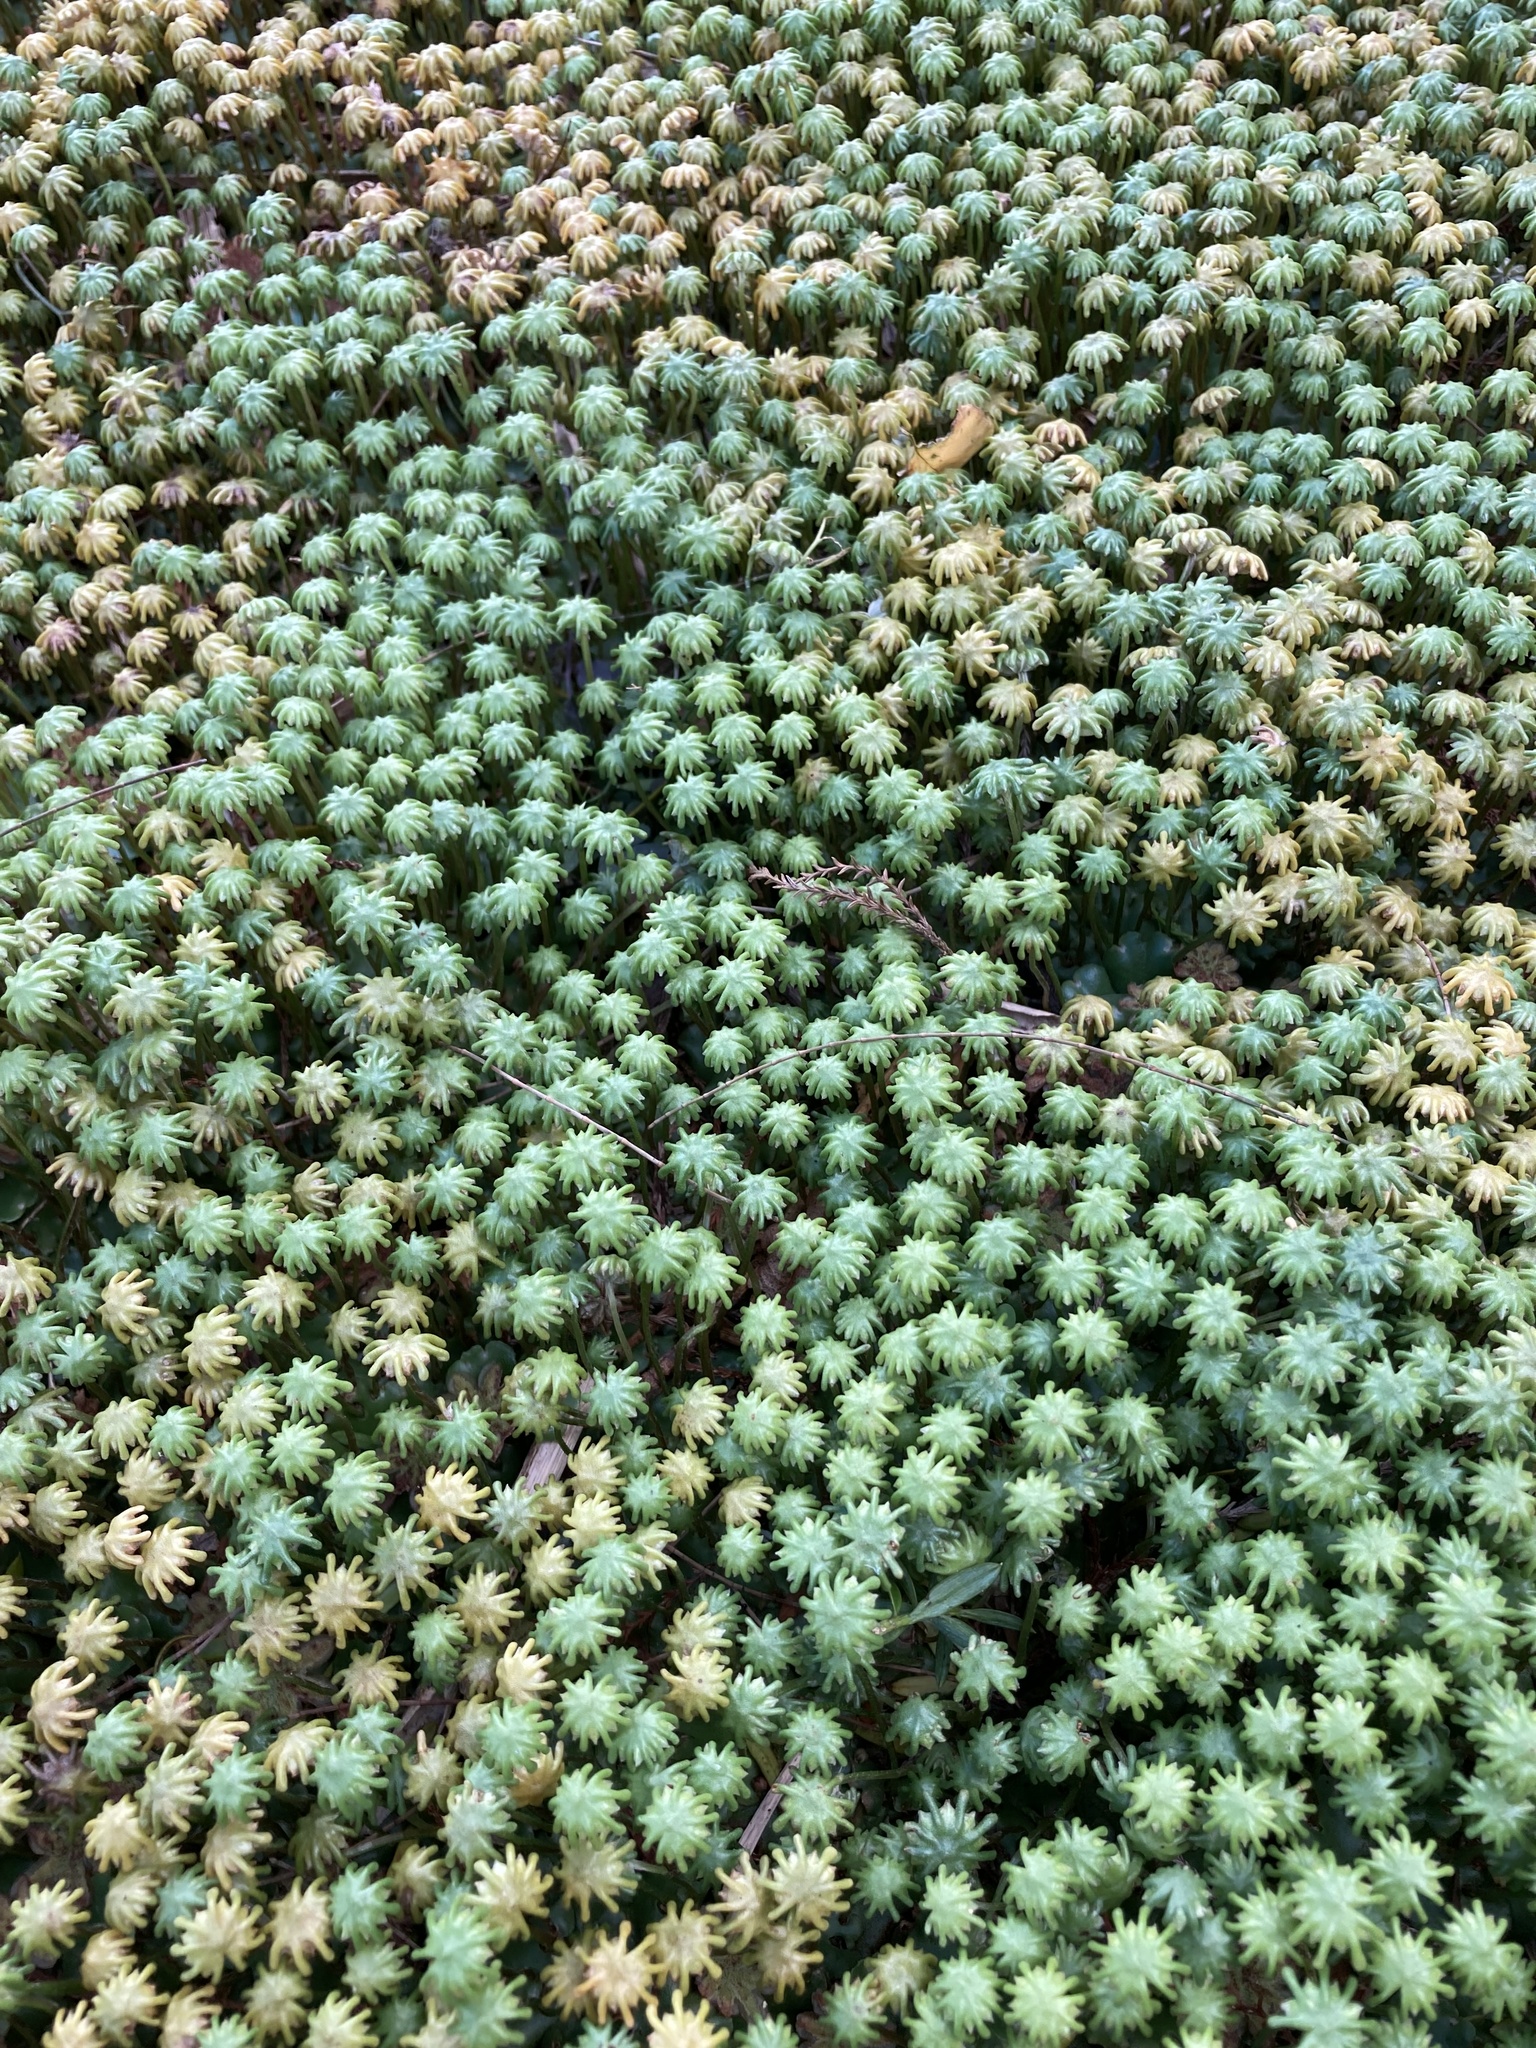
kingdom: Plantae
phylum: Marchantiophyta
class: Marchantiopsida
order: Marchantiales
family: Marchantiaceae
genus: Marchantia
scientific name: Marchantia berteroana
